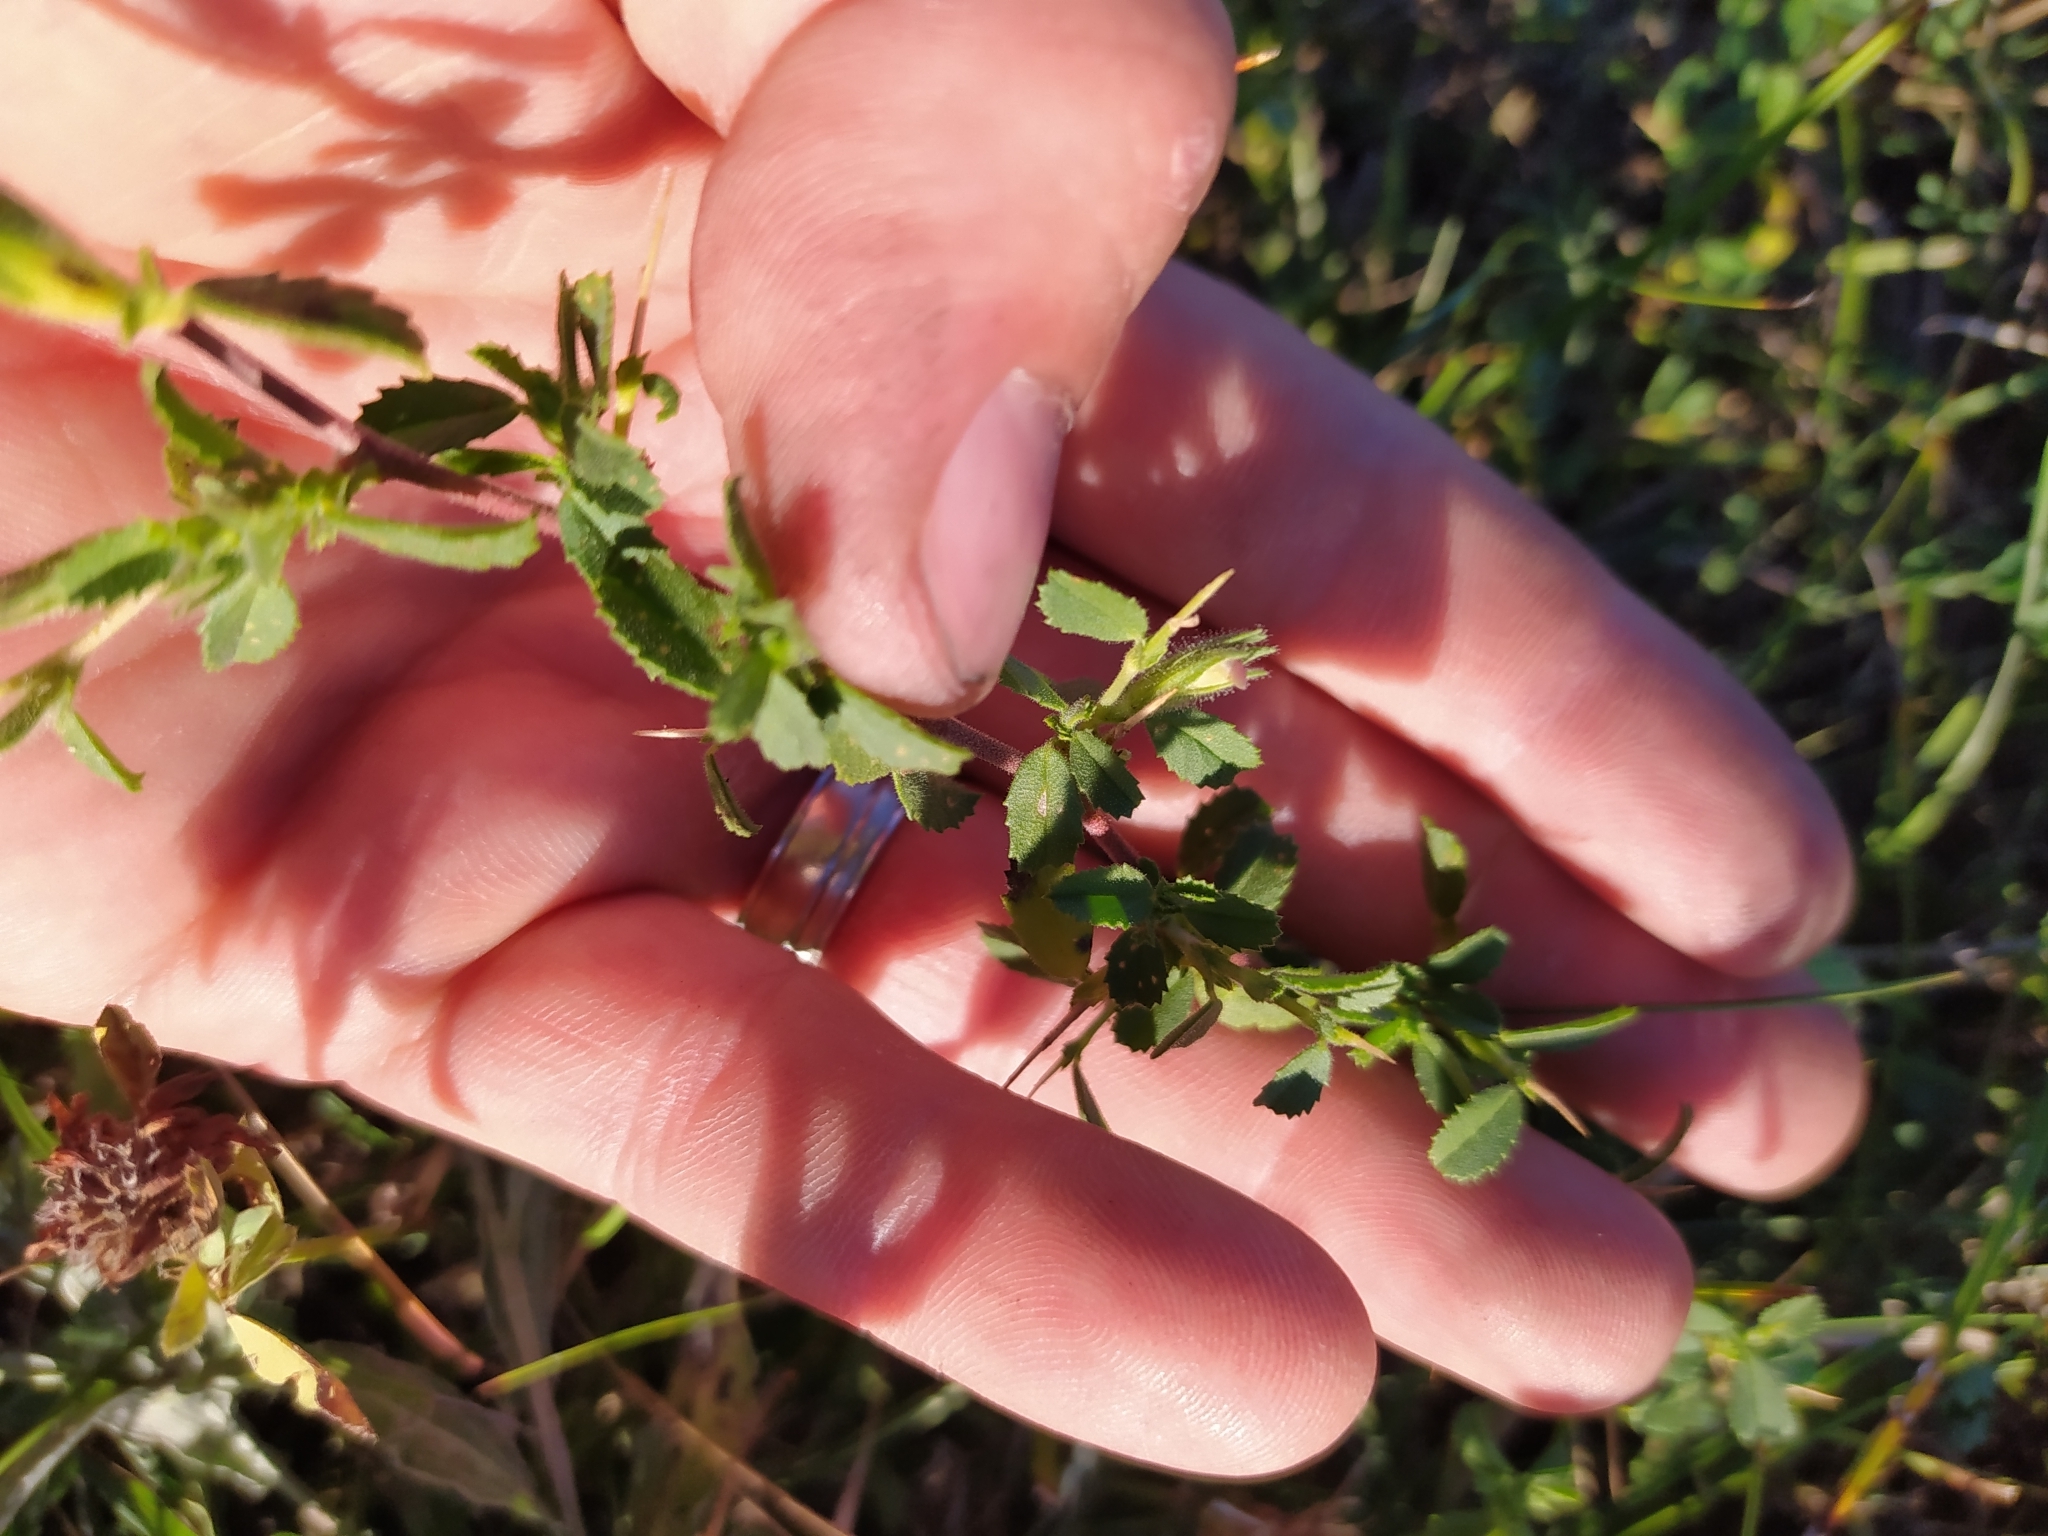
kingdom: Plantae
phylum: Tracheophyta
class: Magnoliopsida
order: Fabales
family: Fabaceae
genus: Ononis
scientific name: Ononis spinosa
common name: Spiny restharrow
